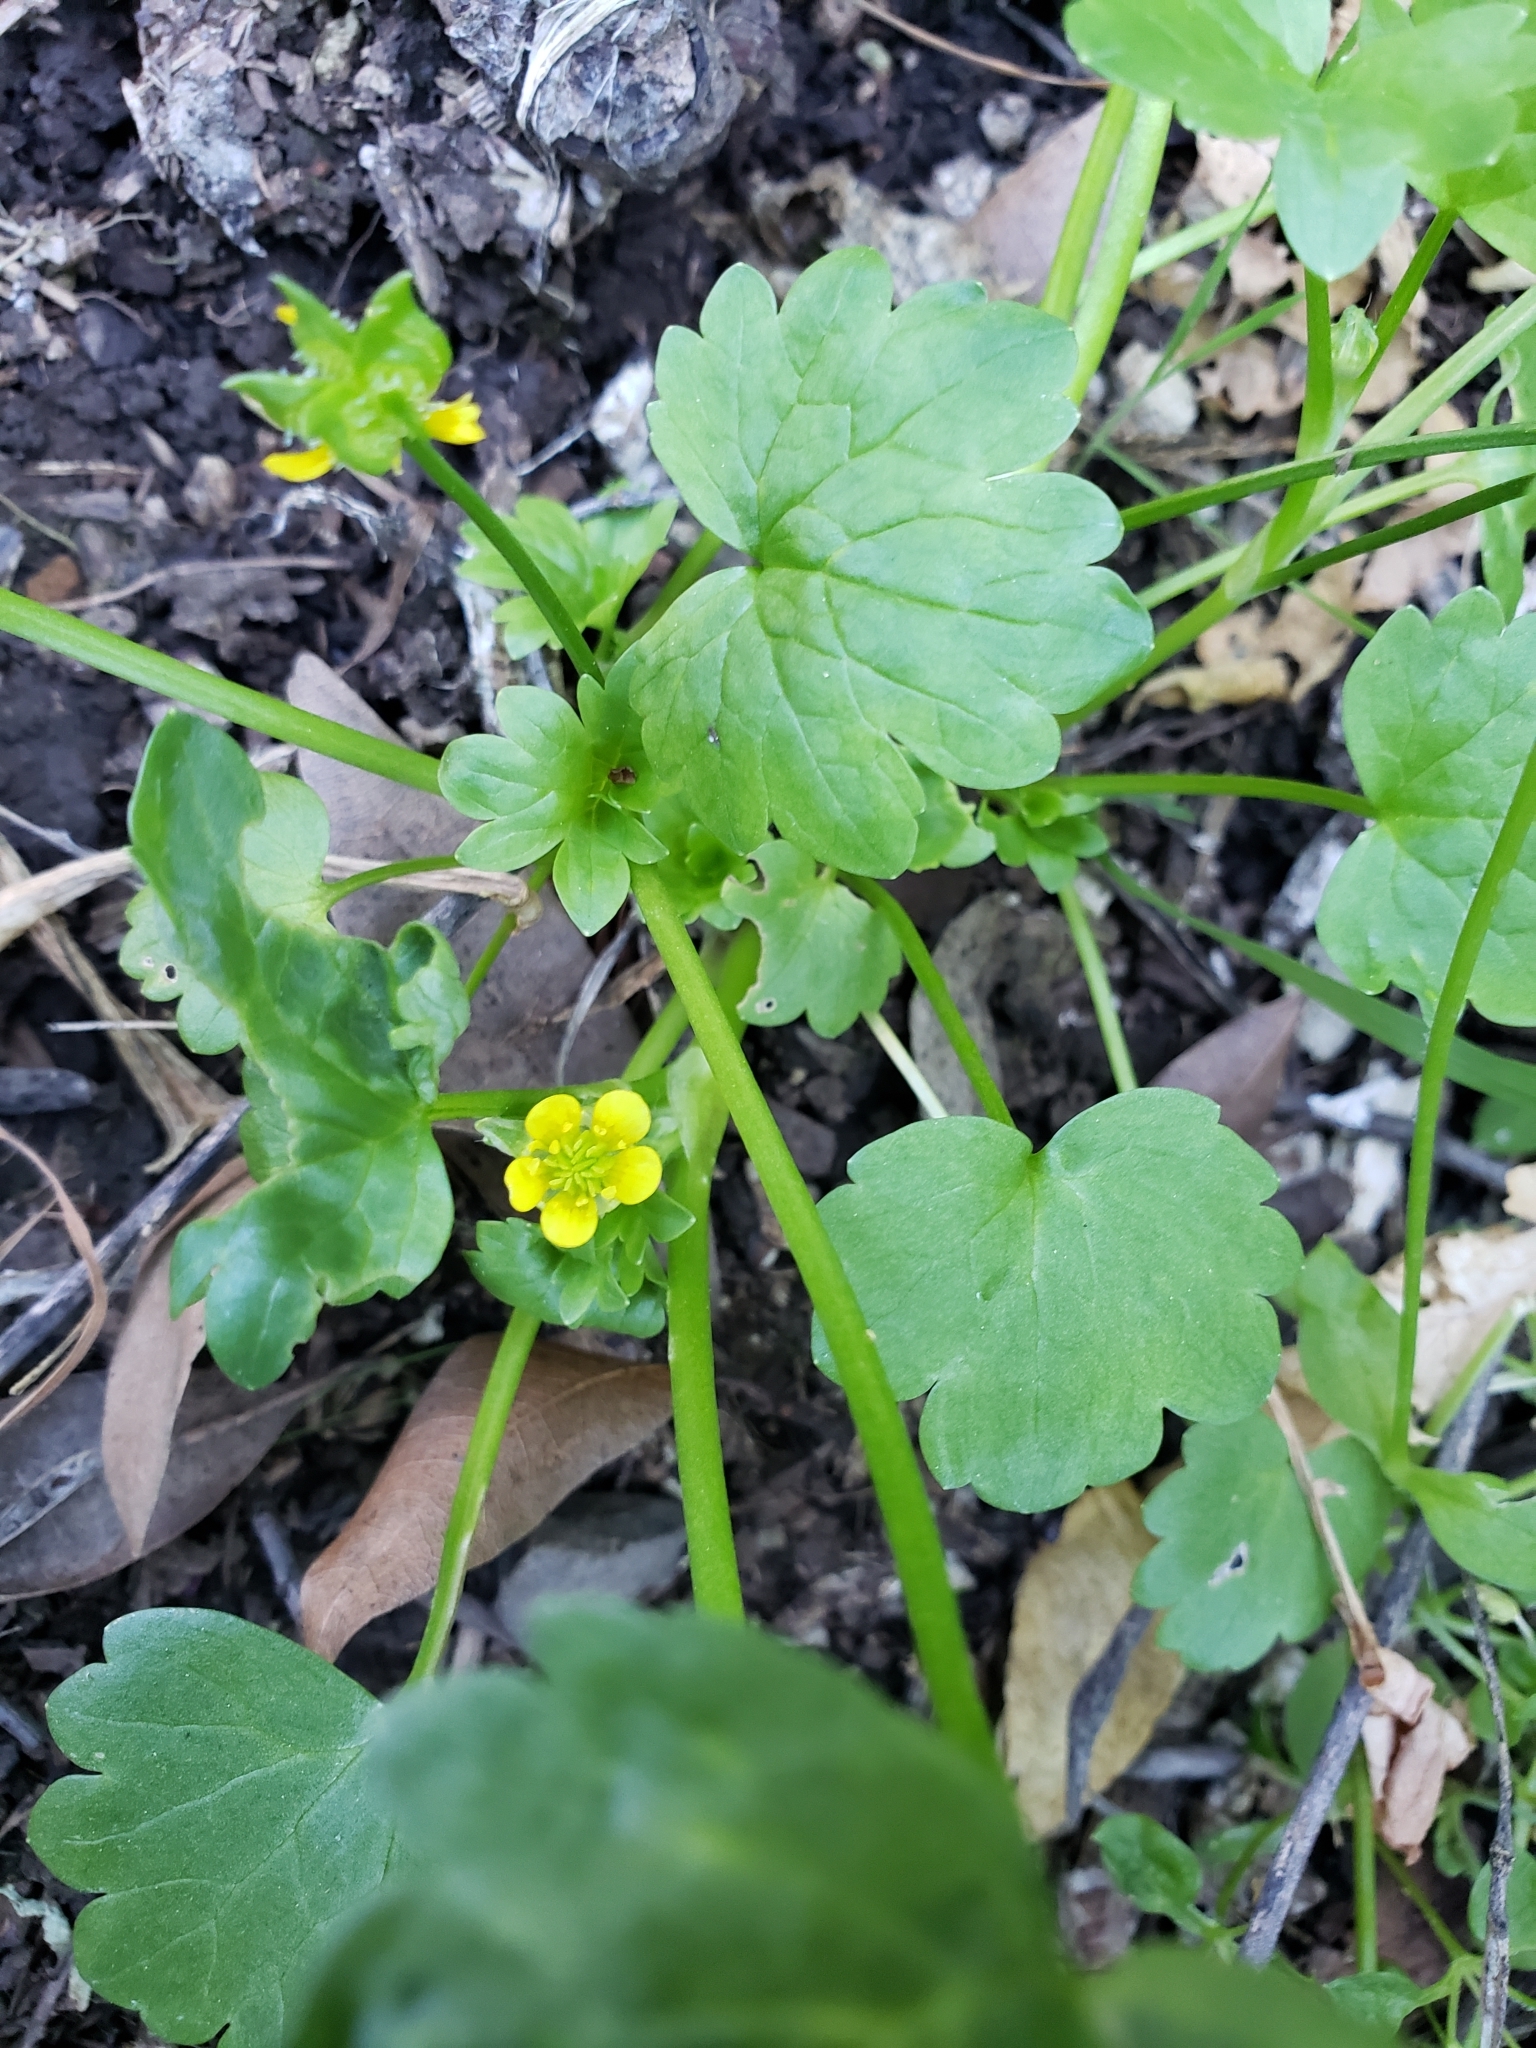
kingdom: Plantae
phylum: Tracheophyta
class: Magnoliopsida
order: Ranunculales
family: Ranunculaceae
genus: Ranunculus
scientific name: Ranunculus muricatus
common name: Rough-fruited buttercup
